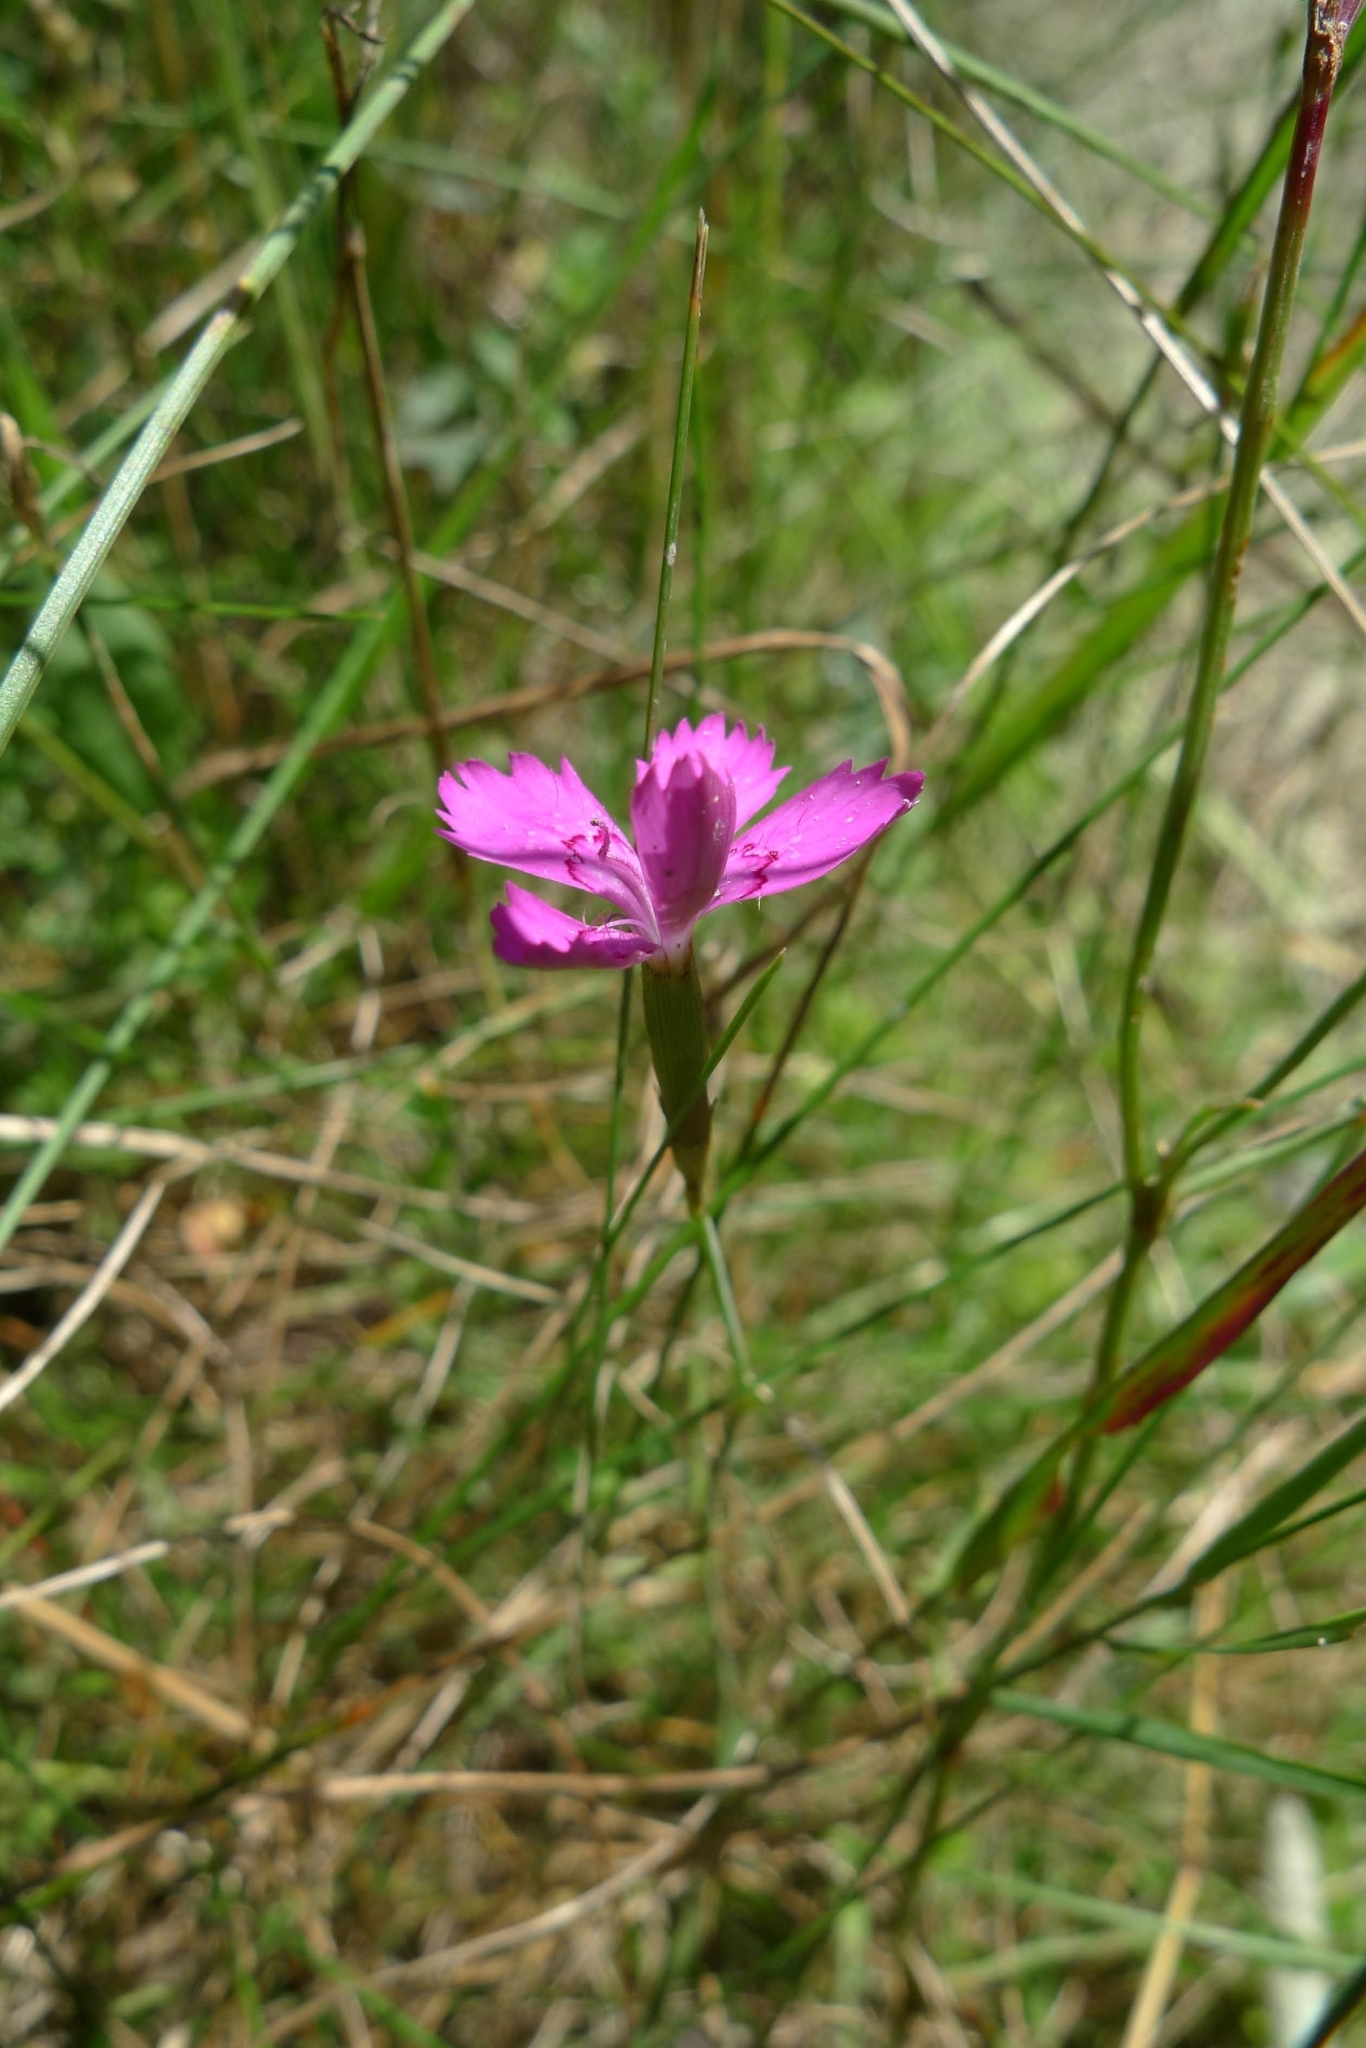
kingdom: Plantae
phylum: Tracheophyta
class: Magnoliopsida
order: Caryophyllales
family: Caryophyllaceae
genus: Dianthus
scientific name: Dianthus deltoides
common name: Maiden pink
